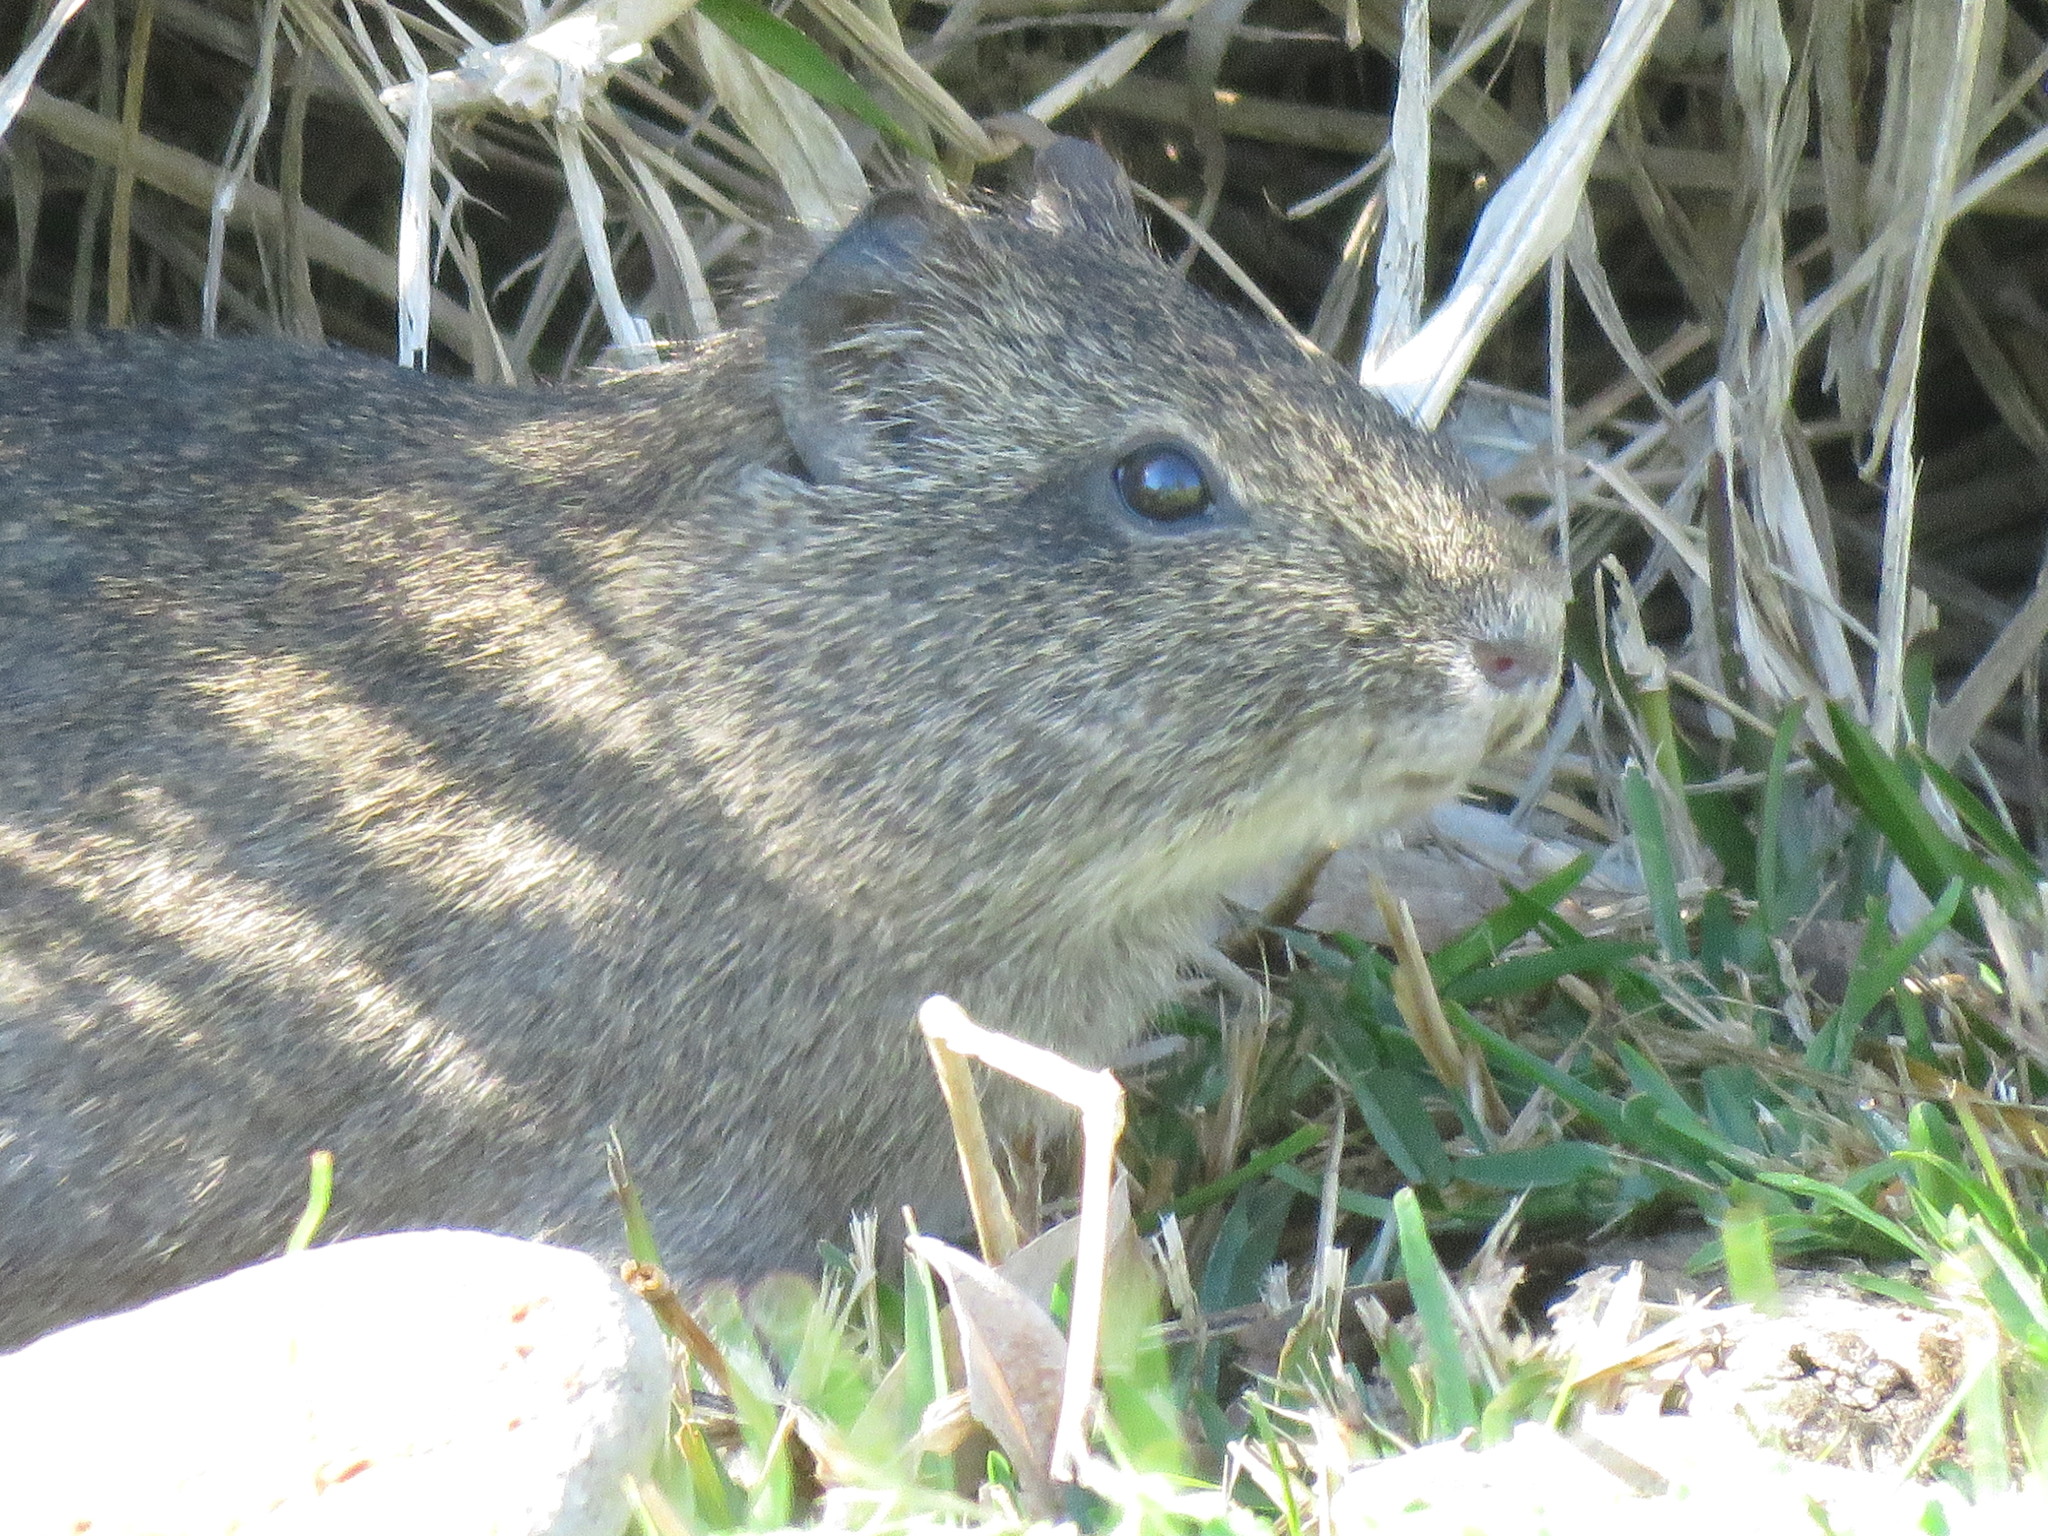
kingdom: Animalia
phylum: Chordata
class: Mammalia
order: Rodentia
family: Caviidae
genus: Cavia
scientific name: Cavia aperea
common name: Brazilian guinea pig
